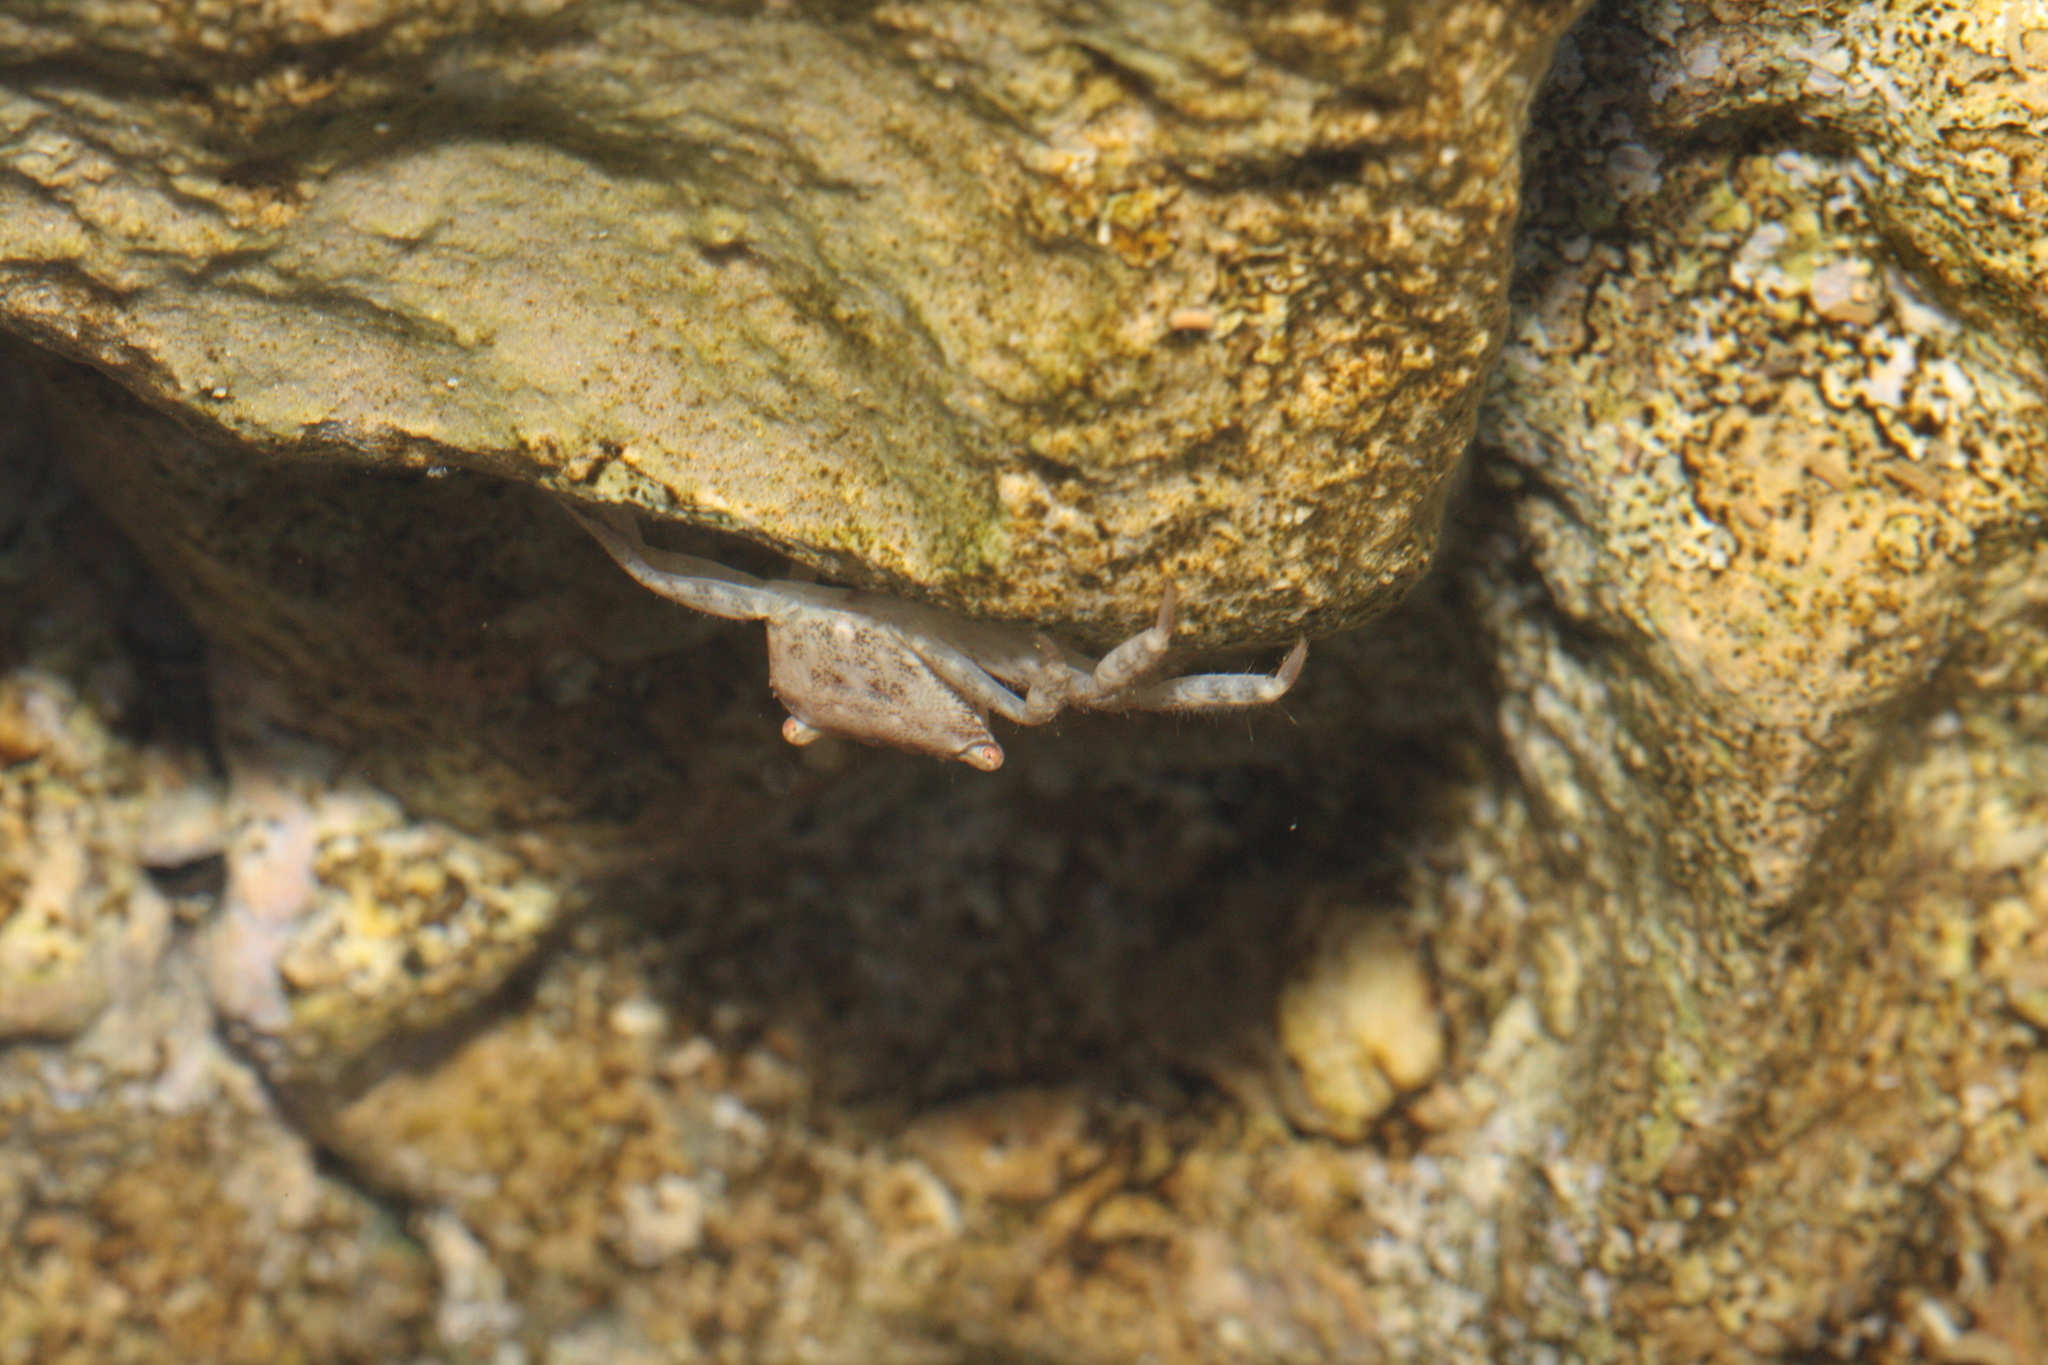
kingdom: Animalia
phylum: Arthropoda
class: Malacostraca
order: Decapoda
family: Grapsidae
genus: Pachygrapsus
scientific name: Pachygrapsus marmoratus
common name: Marbled rock crab
